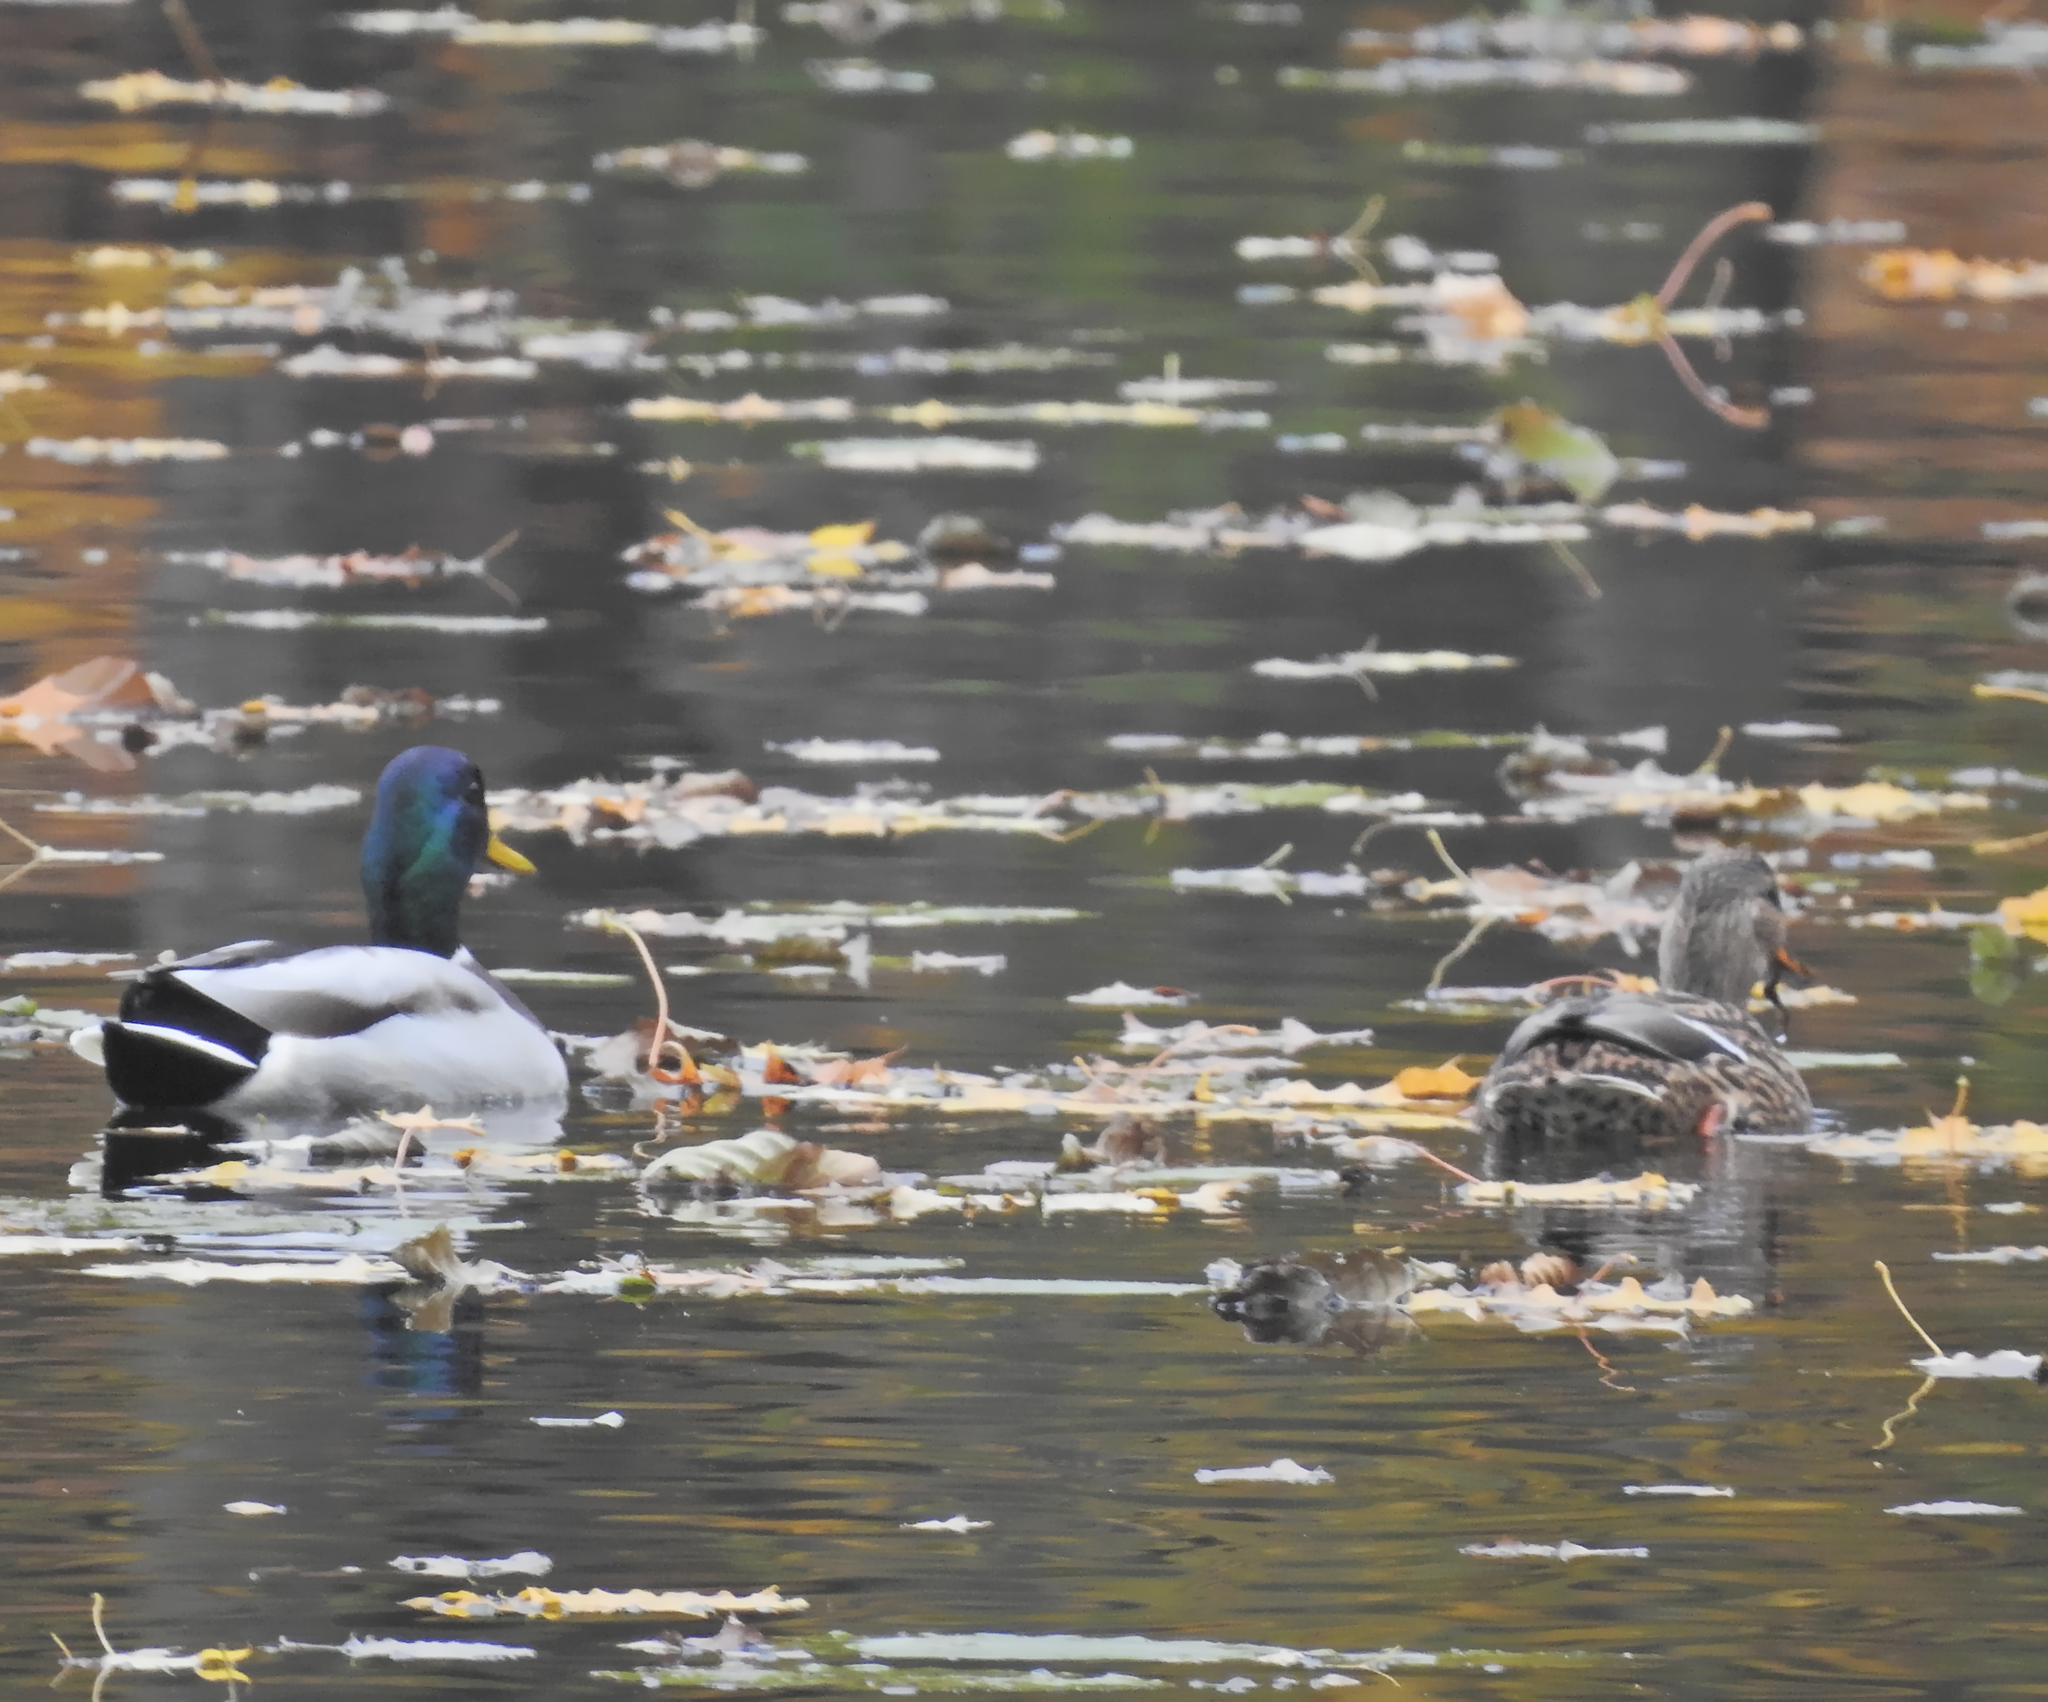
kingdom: Animalia
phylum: Chordata
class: Aves
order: Anseriformes
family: Anatidae
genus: Anas
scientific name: Anas platyrhynchos
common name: Mallard
